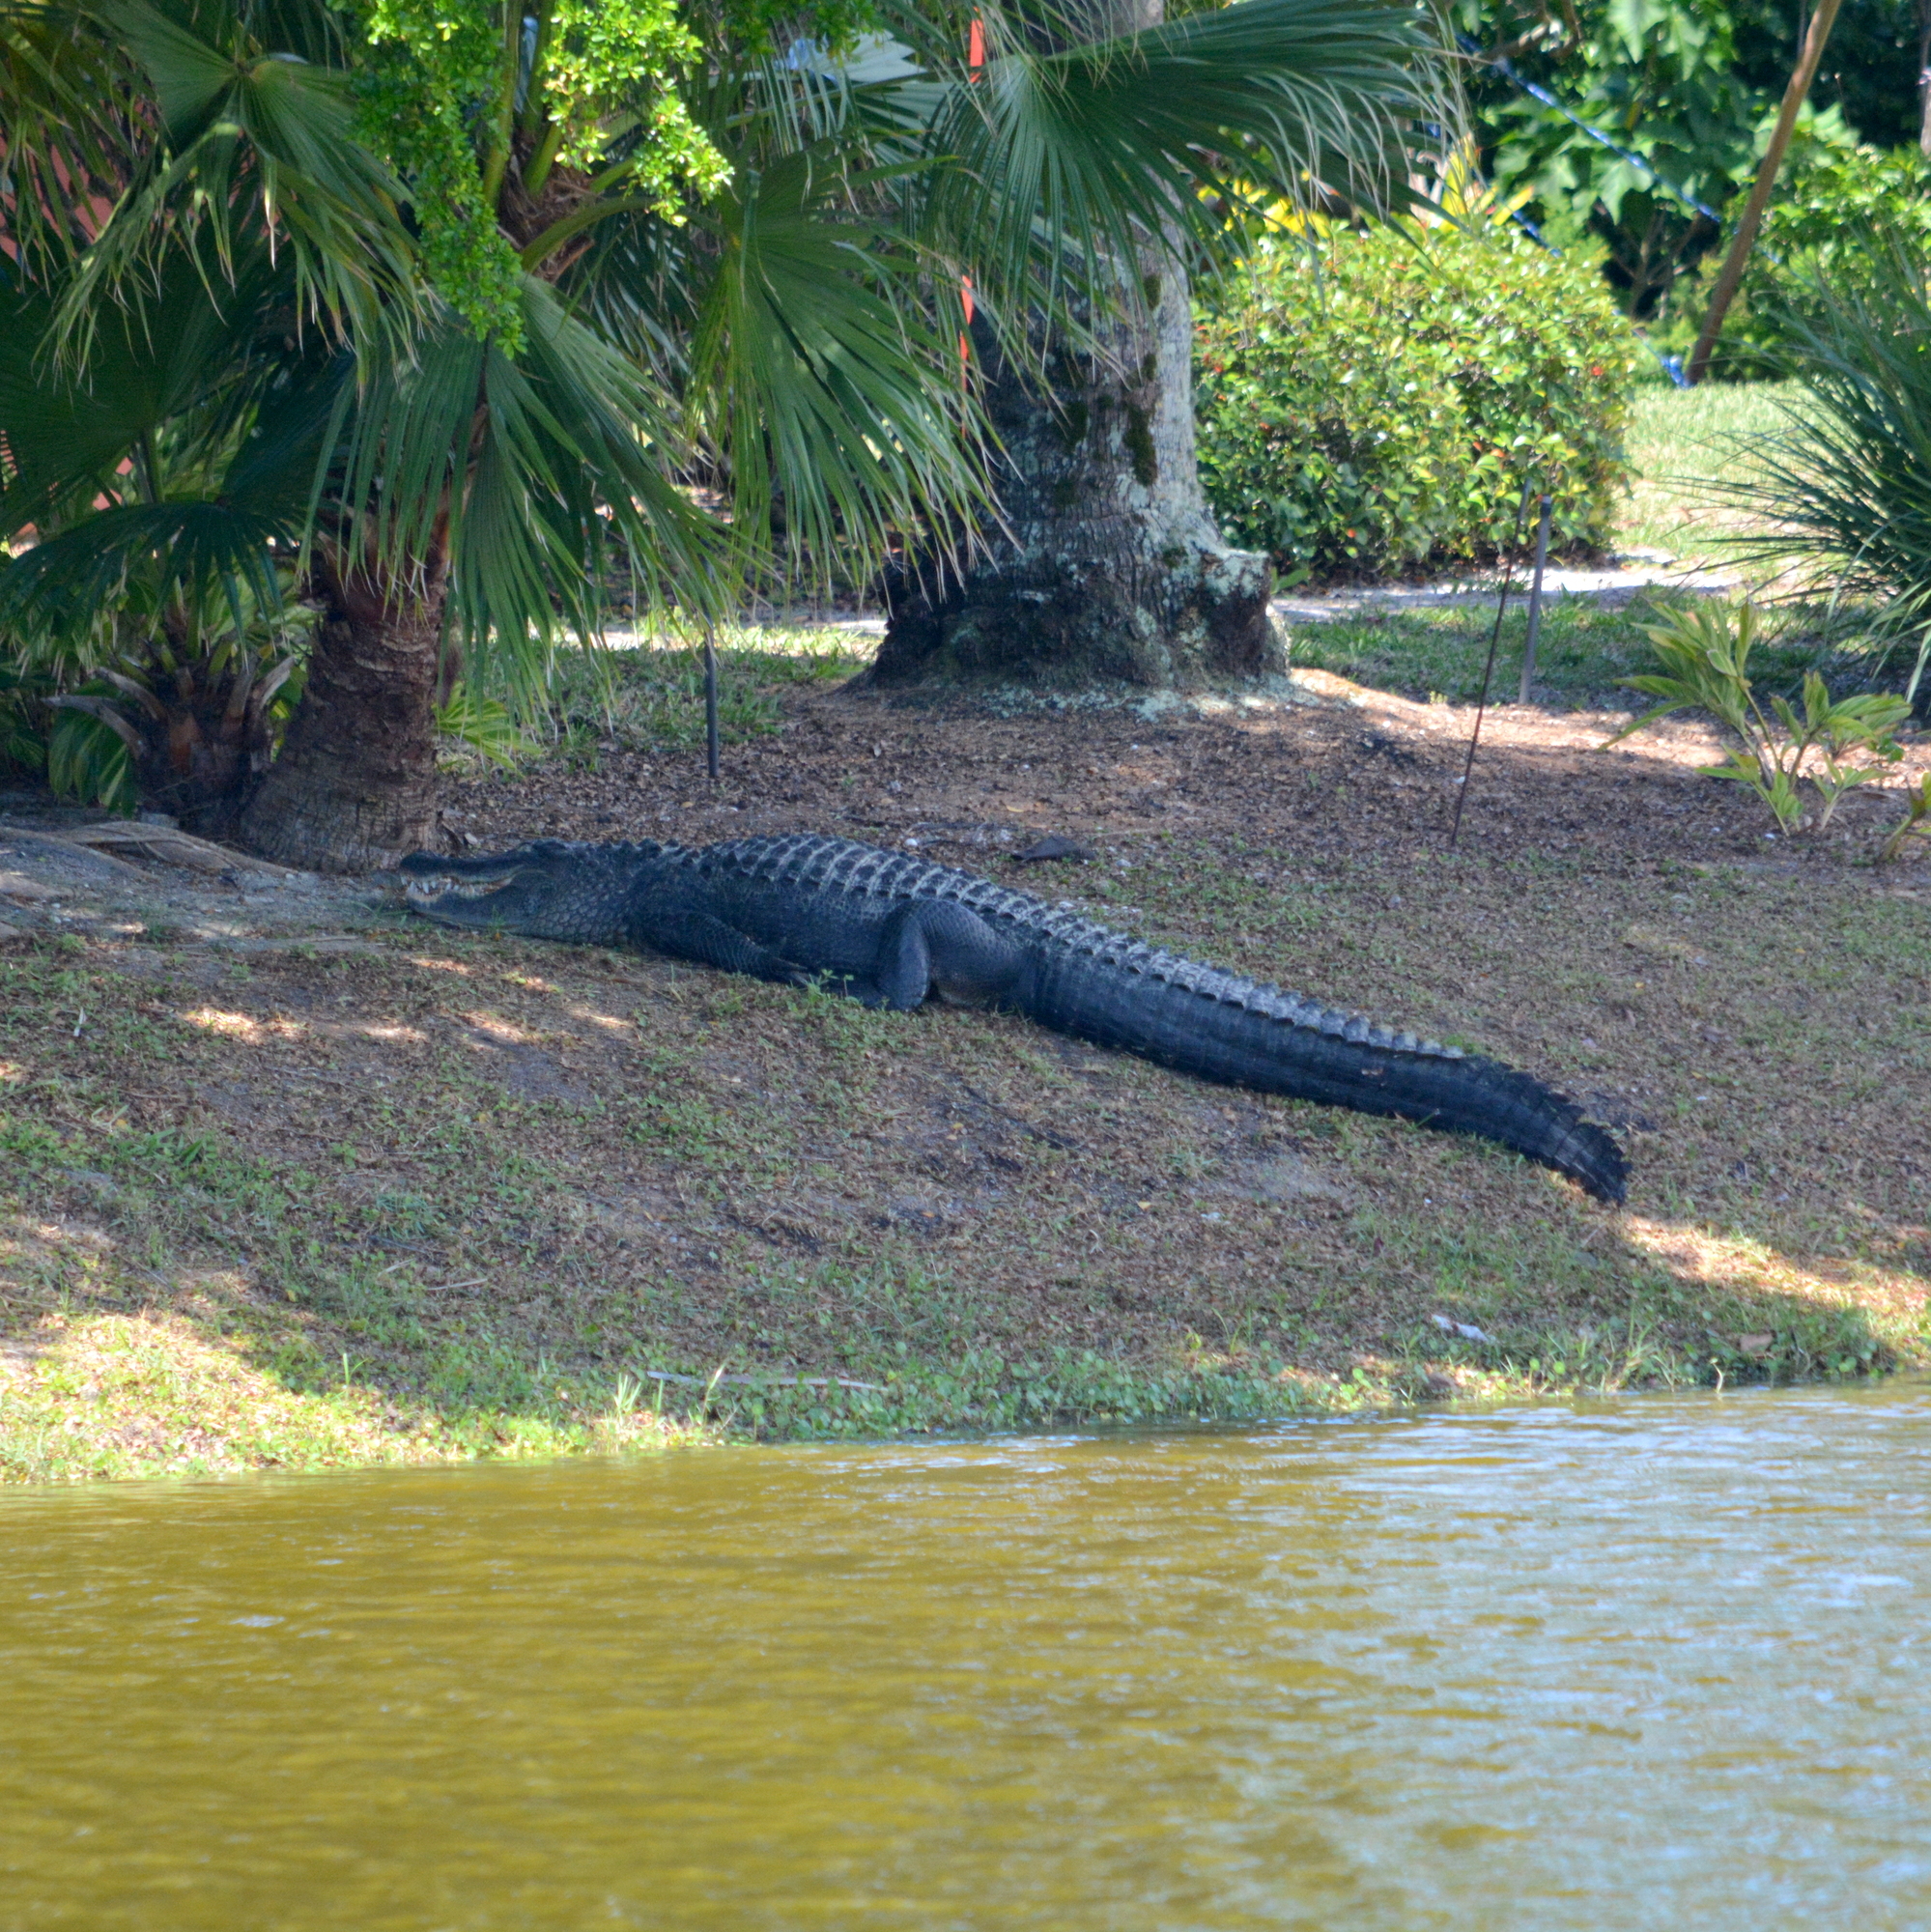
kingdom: Animalia
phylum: Chordata
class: Crocodylia
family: Alligatoridae
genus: Alligator
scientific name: Alligator mississippiensis
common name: American alligator
